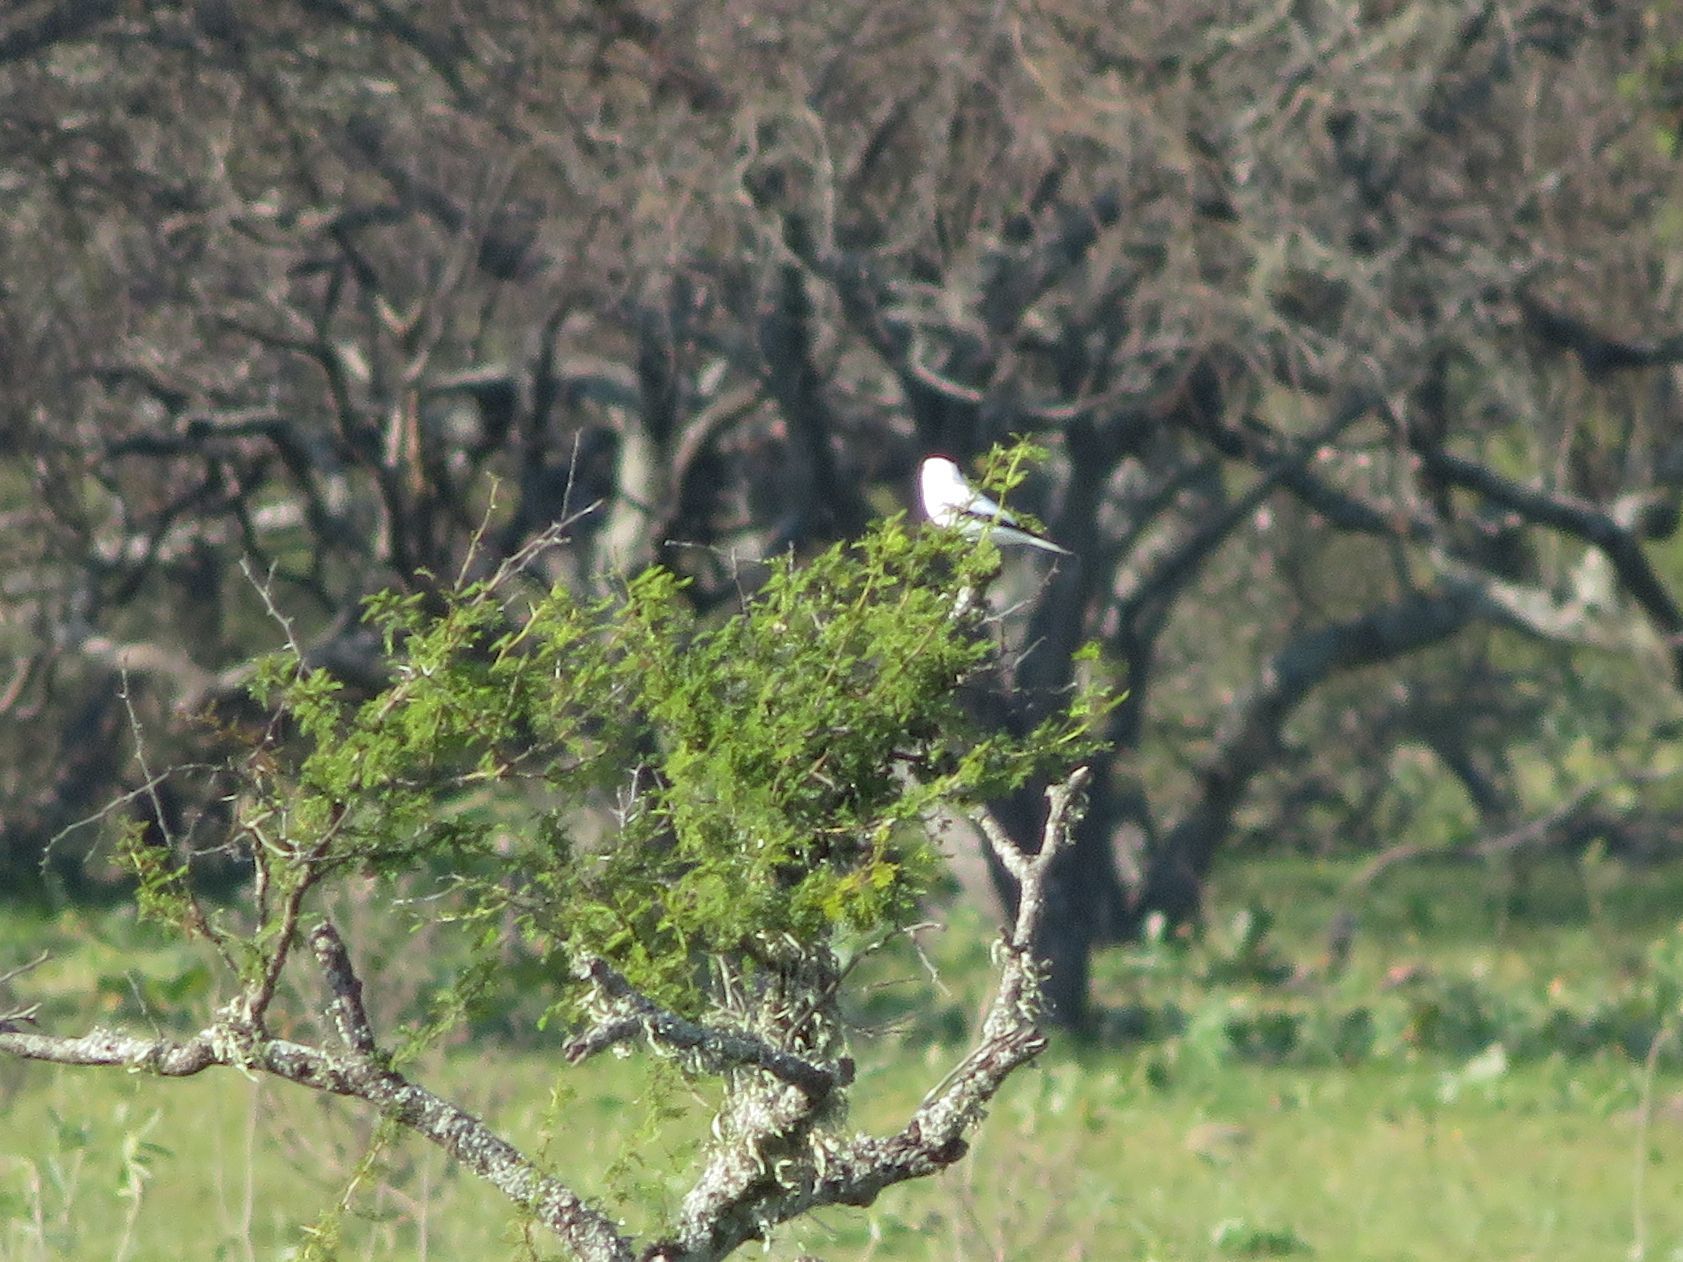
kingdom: Animalia
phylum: Chordata
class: Aves
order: Passeriformes
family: Tyrannidae
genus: Xolmis
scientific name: Xolmis irupero
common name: White monjita
